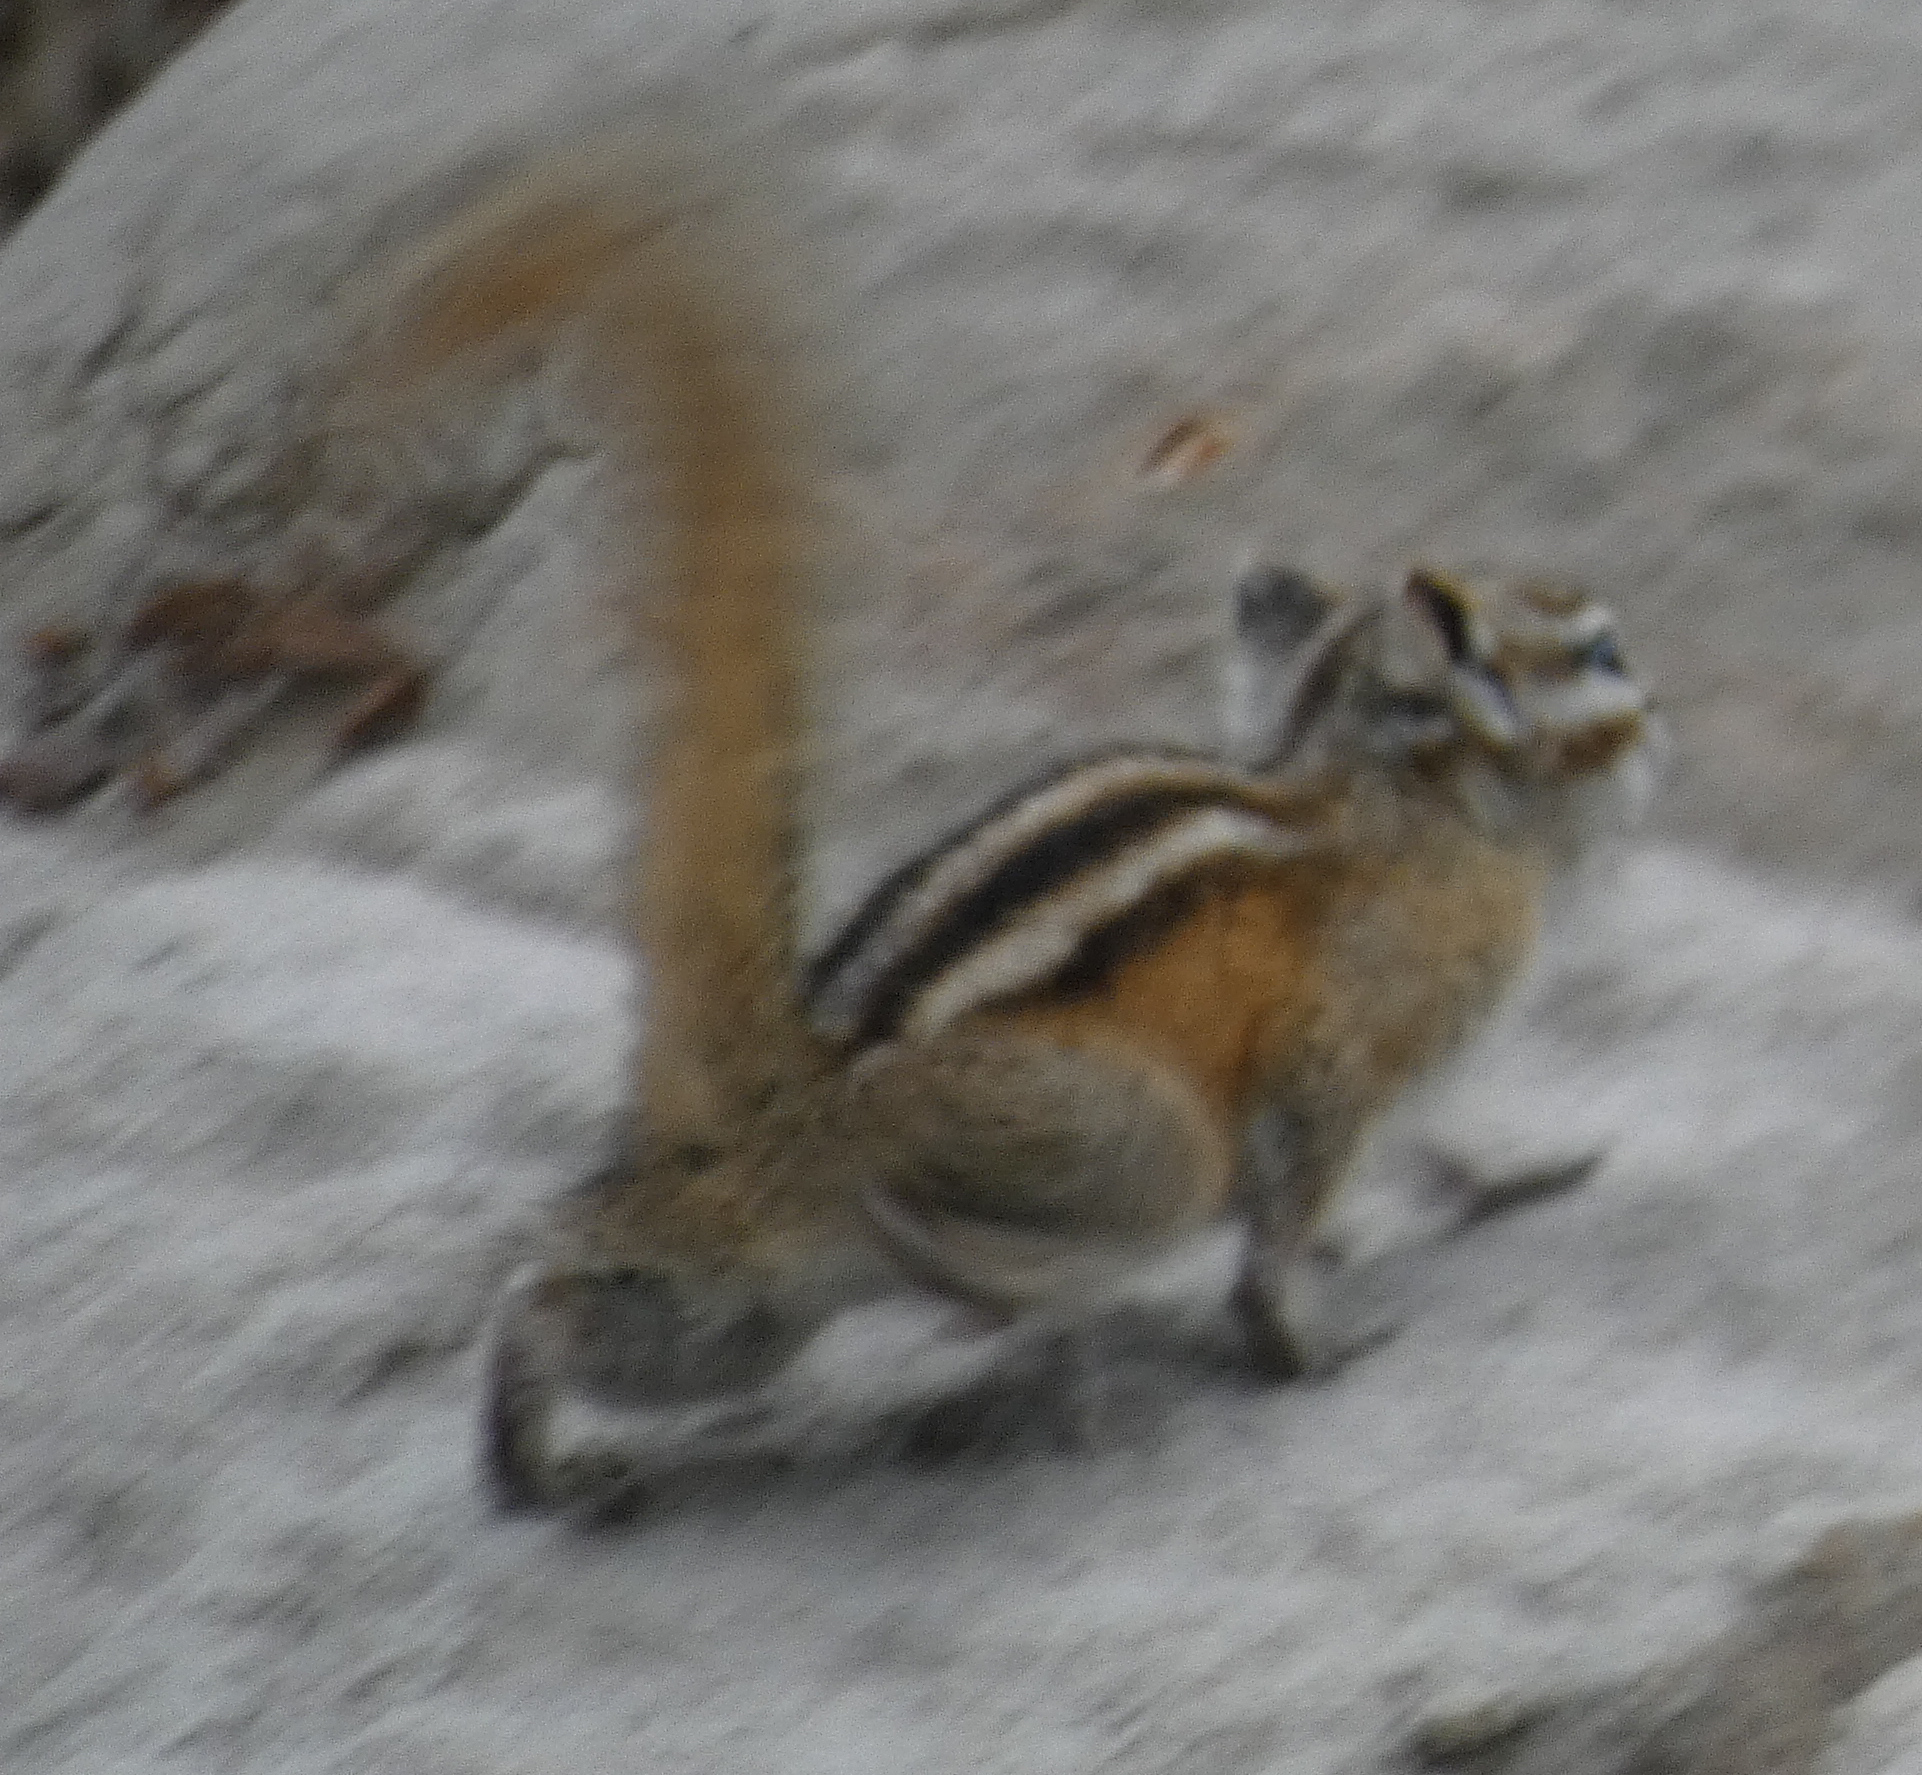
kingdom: Animalia
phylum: Chordata
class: Mammalia
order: Rodentia
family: Sciuridae
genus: Tamias
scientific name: Tamias minimus
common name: Least chipmunk
